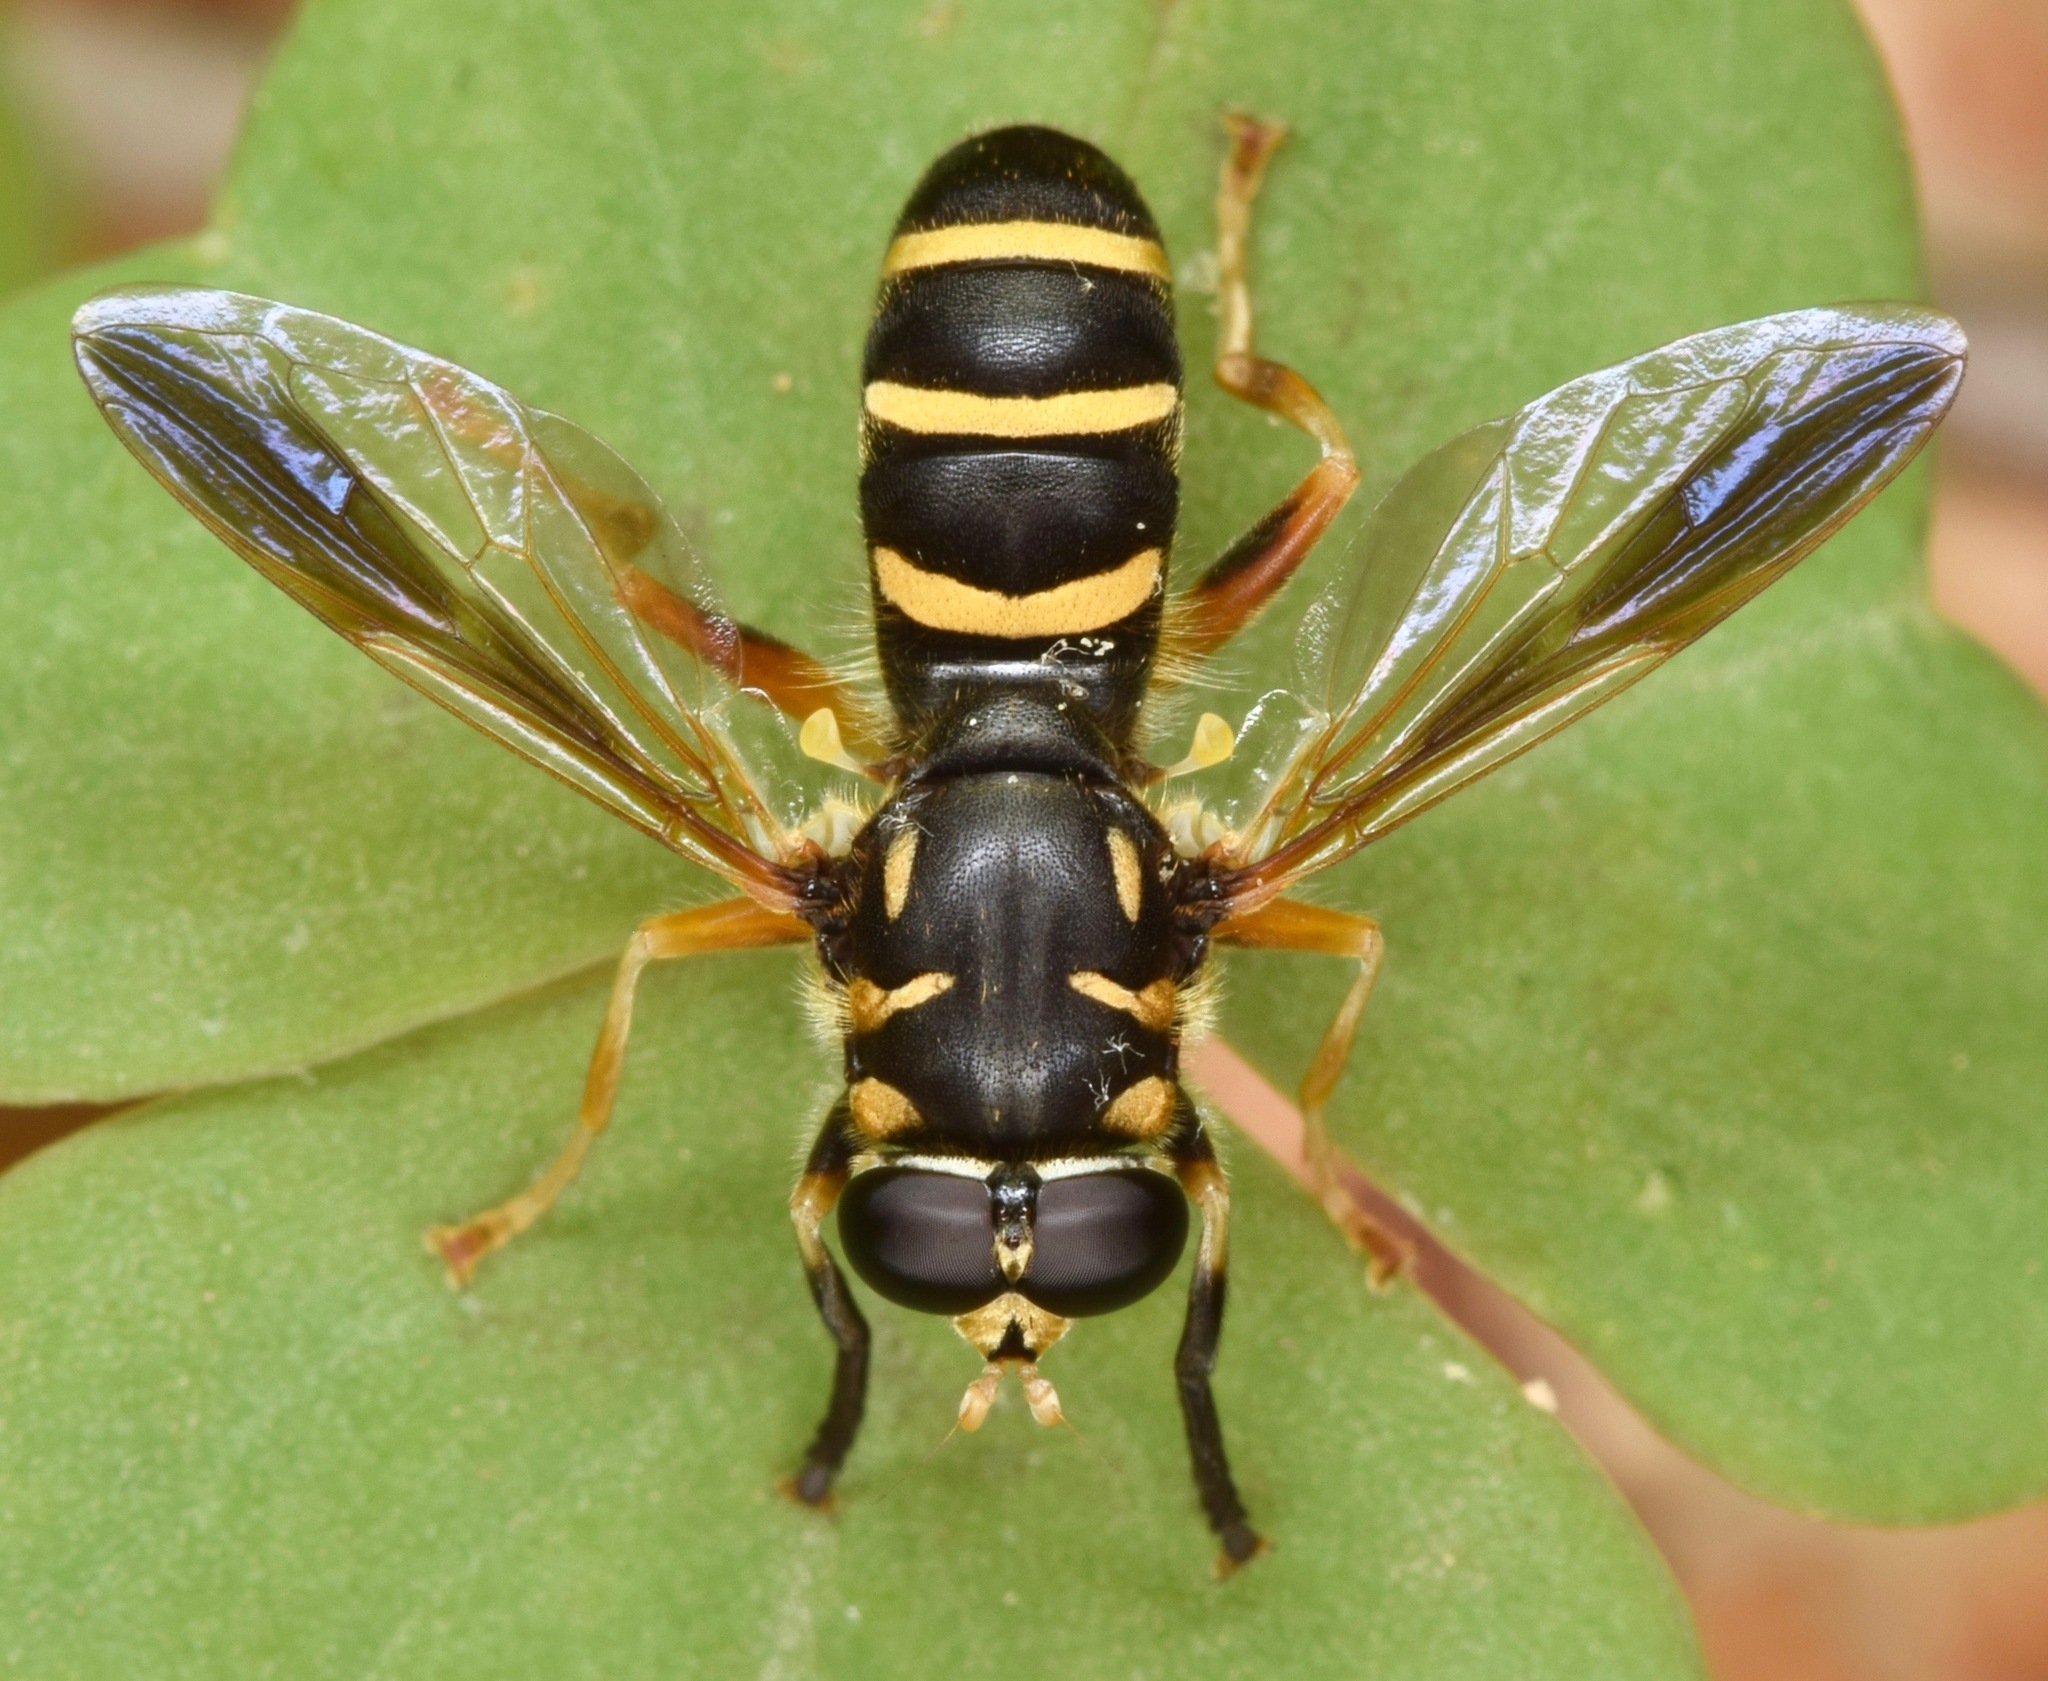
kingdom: Animalia
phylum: Arthropoda
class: Insecta
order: Diptera
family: Syrphidae
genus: Temnostoma
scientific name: Temnostoma trifasciatum
